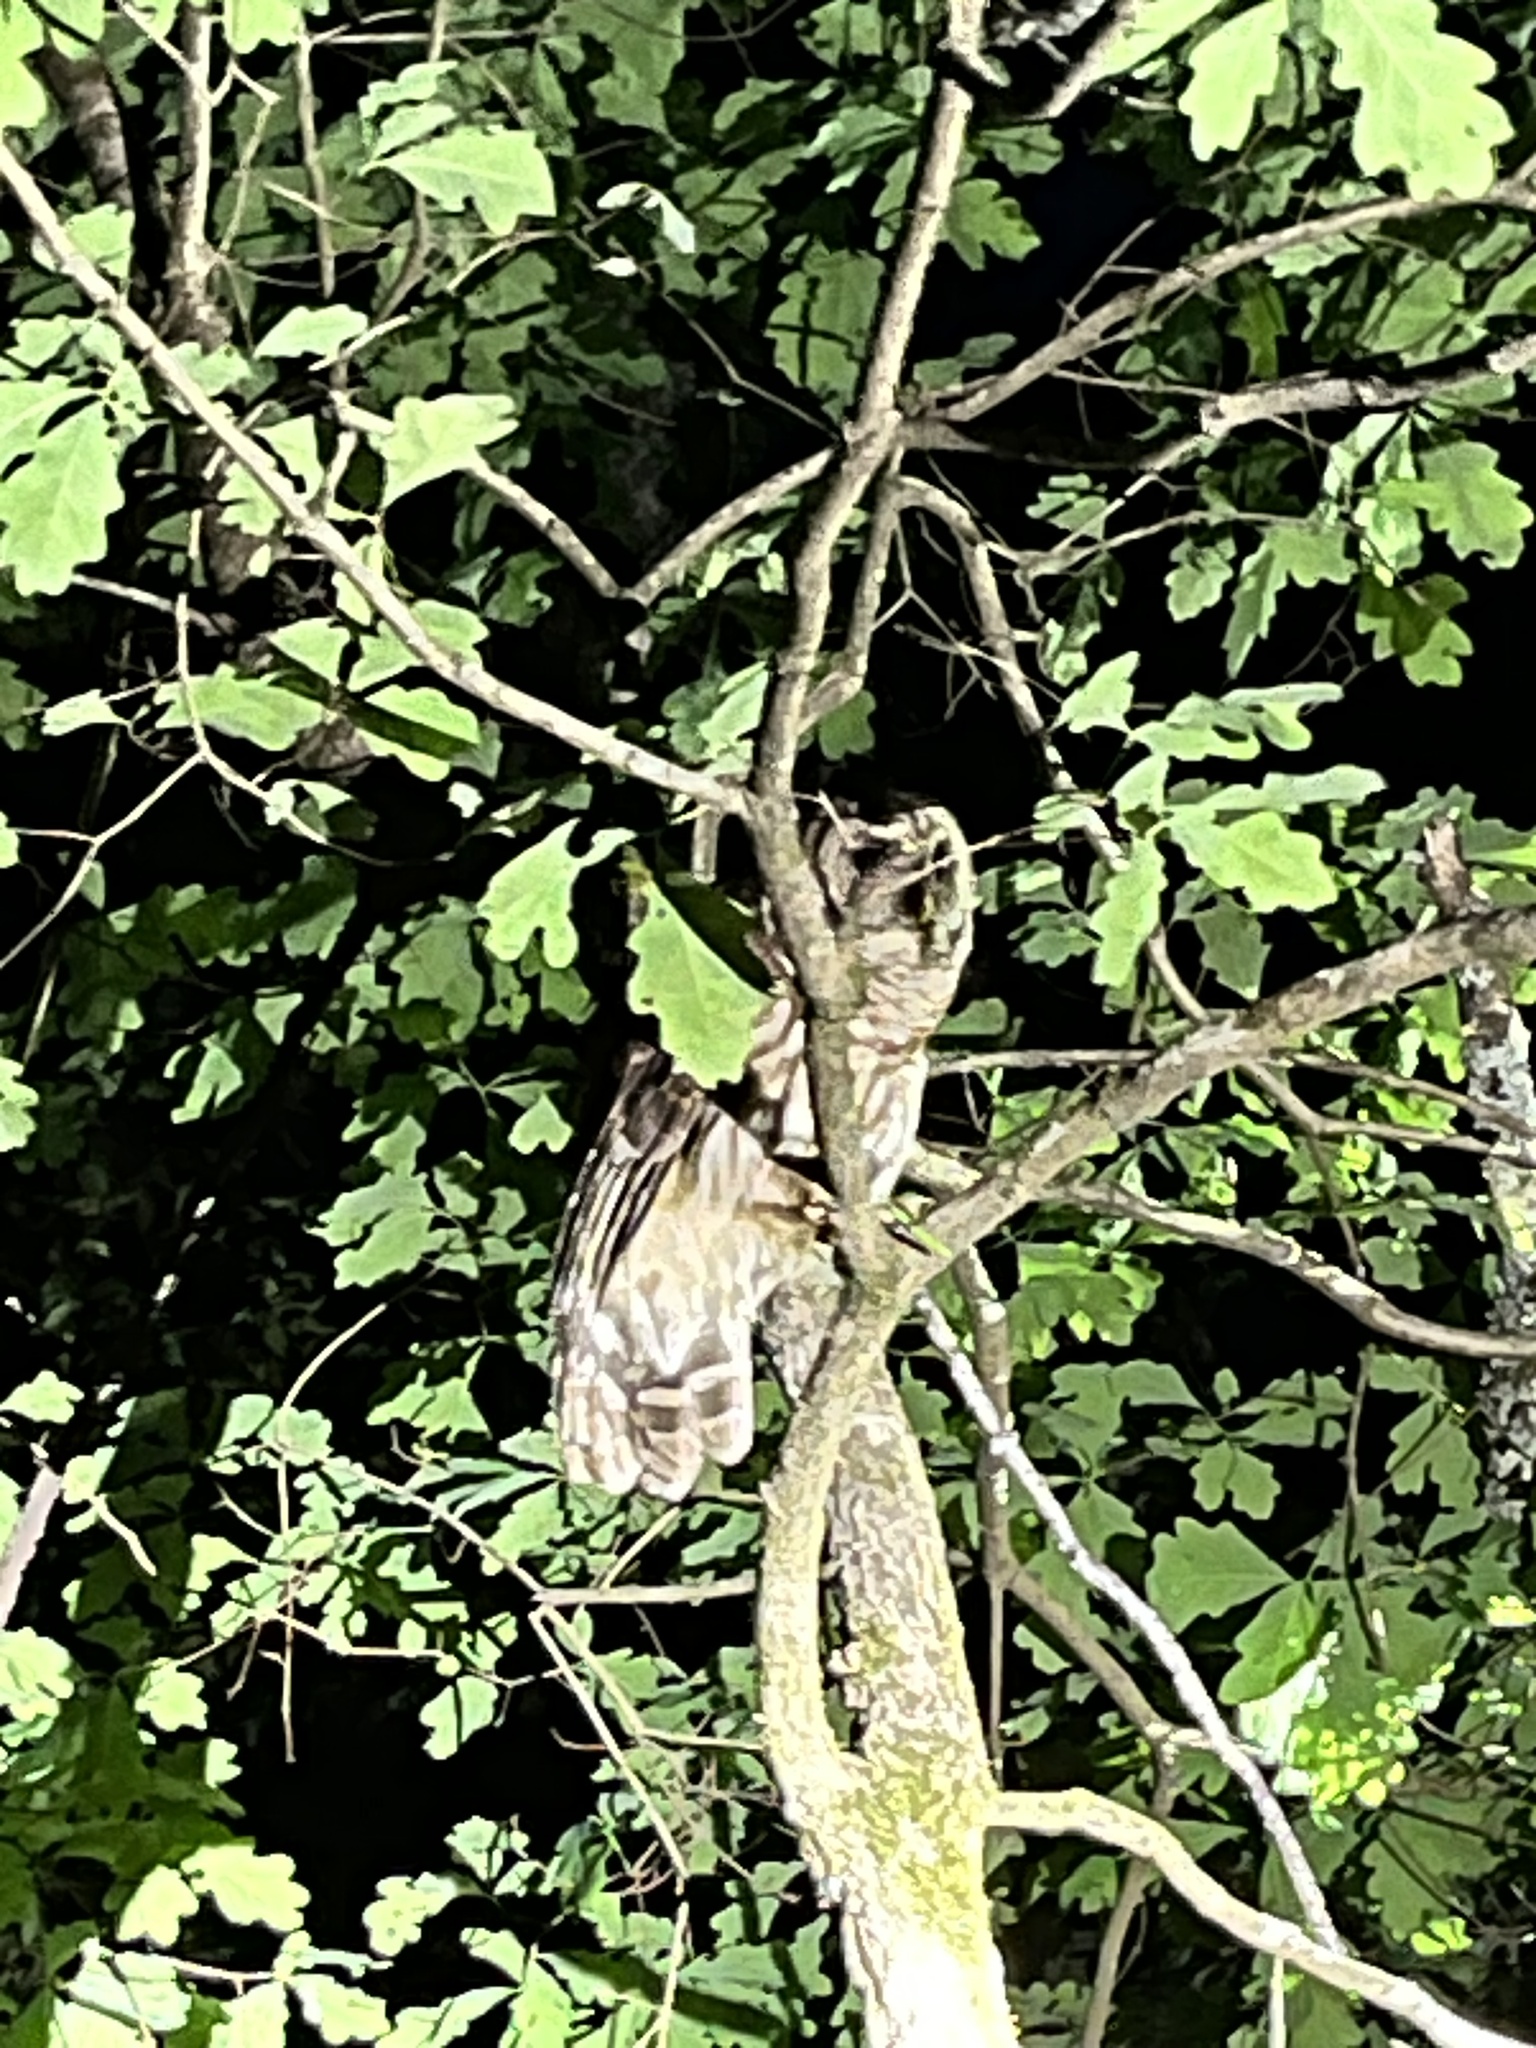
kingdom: Animalia
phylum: Chordata
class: Aves
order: Strigiformes
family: Strigidae
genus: Strix
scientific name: Strix varia
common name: Barred owl
